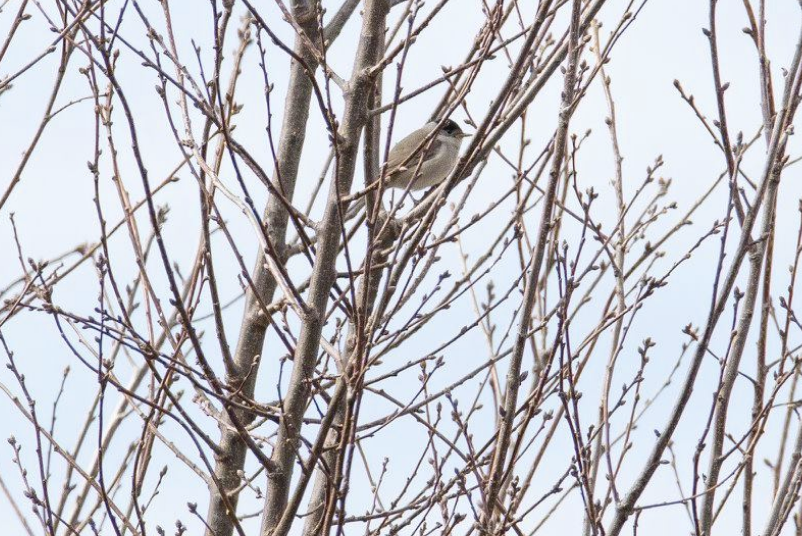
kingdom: Animalia
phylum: Chordata
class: Aves
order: Passeriformes
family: Sylviidae
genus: Sylvia
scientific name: Sylvia atricapilla
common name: Eurasian blackcap
